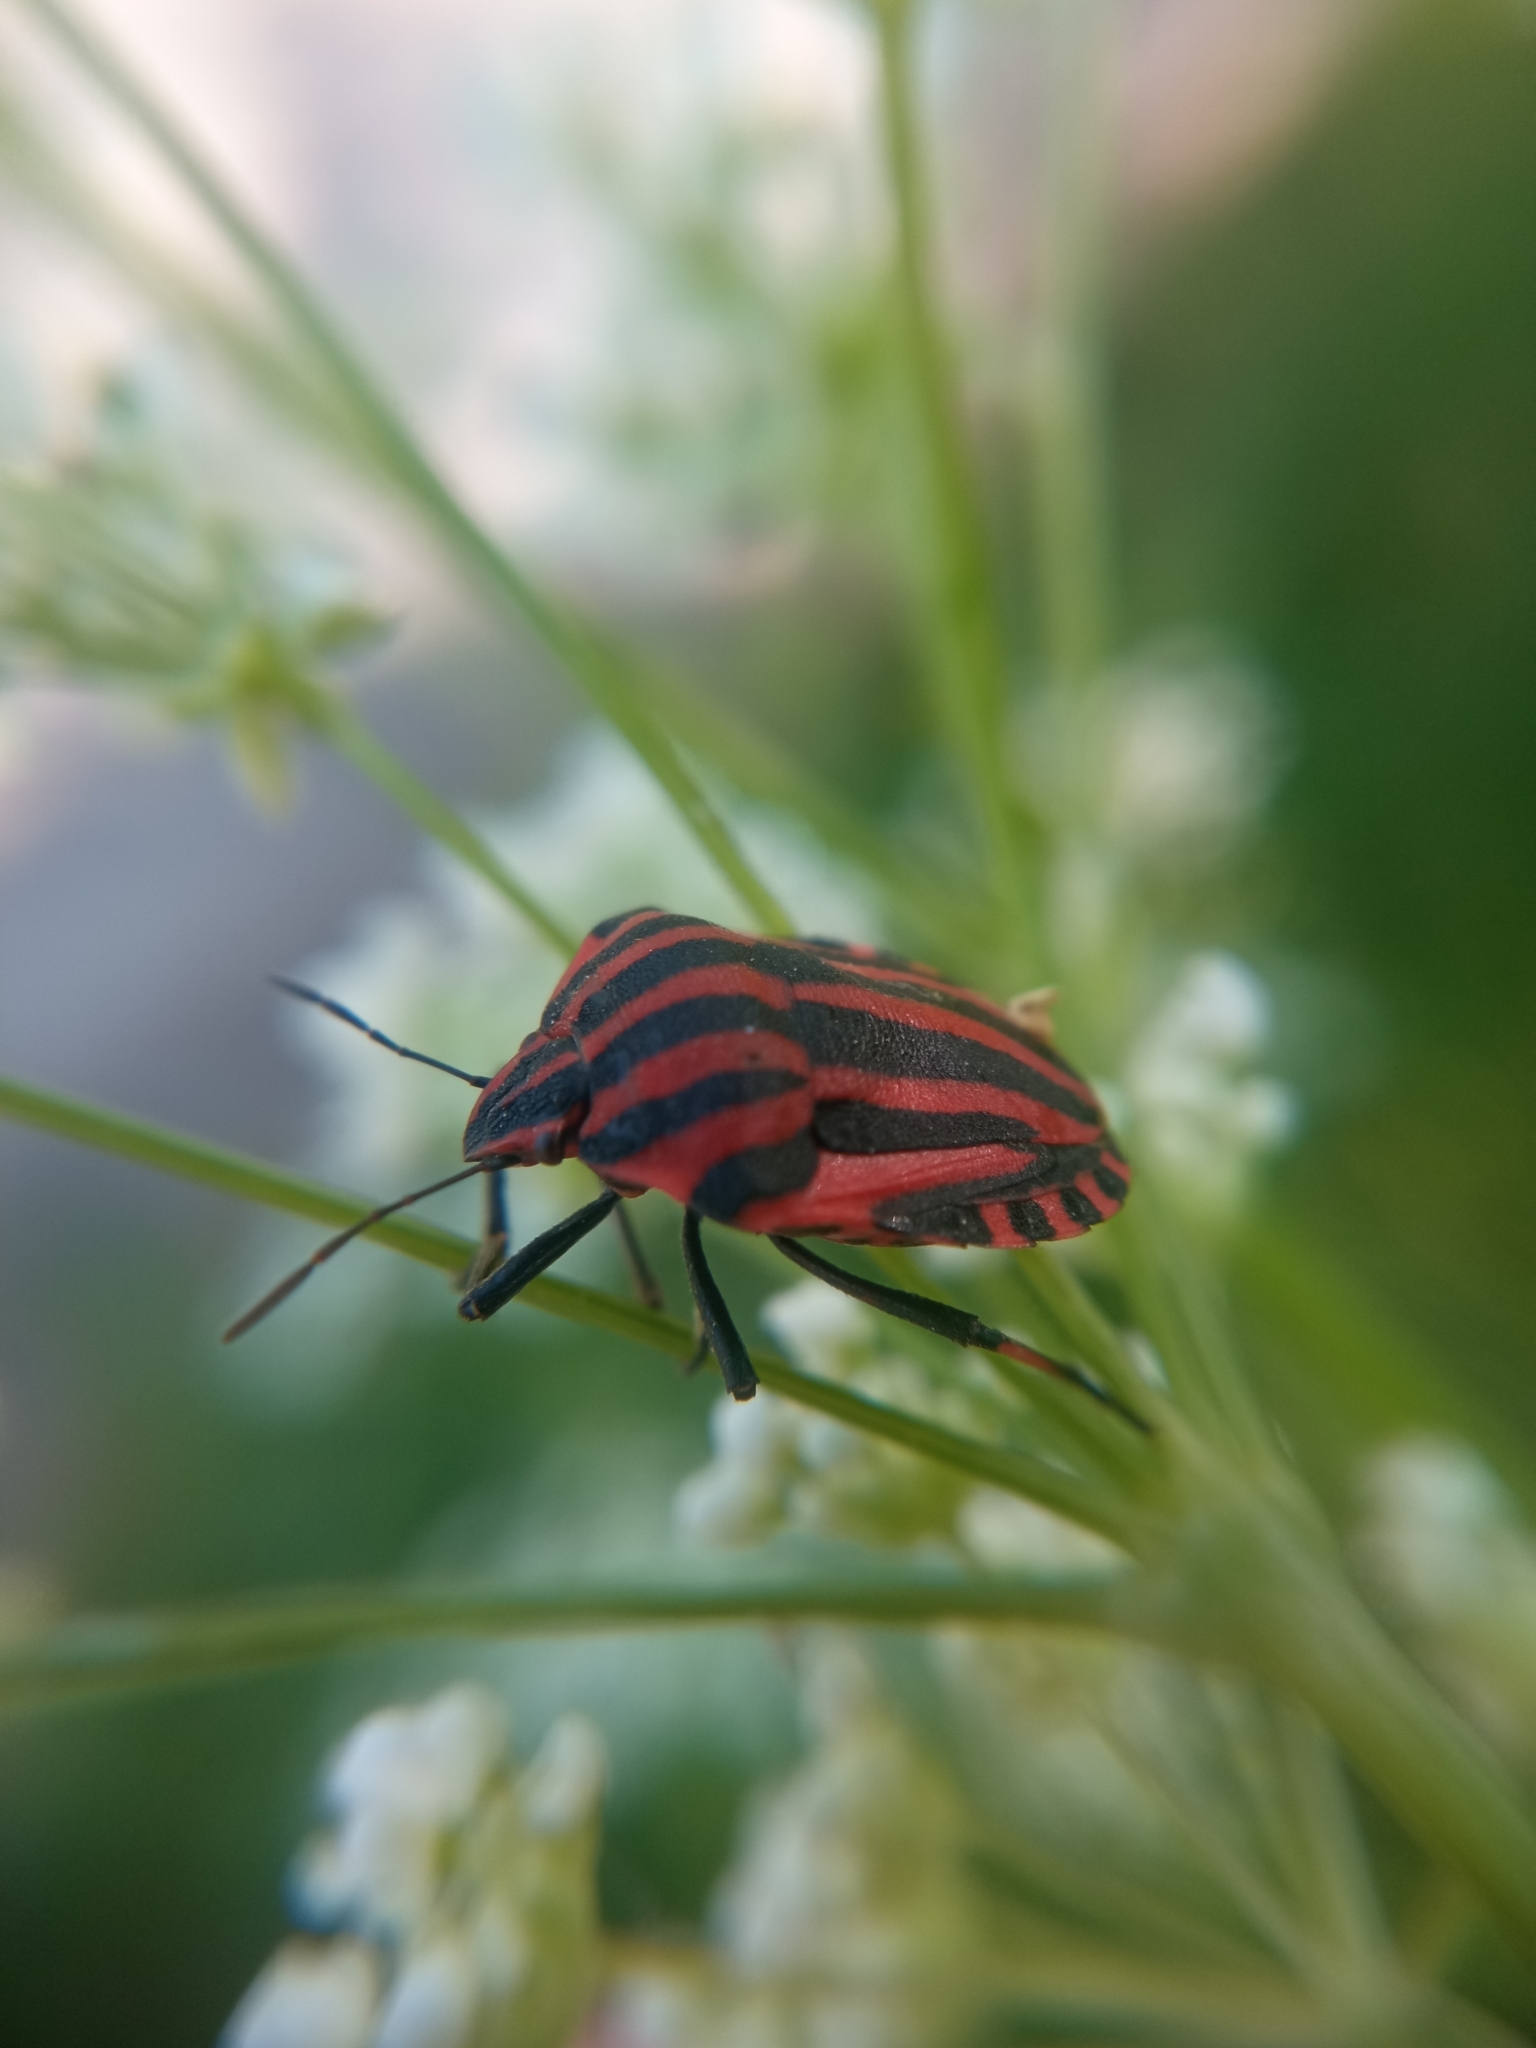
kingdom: Animalia
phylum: Arthropoda
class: Insecta
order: Hemiptera
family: Pentatomidae
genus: Graphosoma
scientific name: Graphosoma italicum
